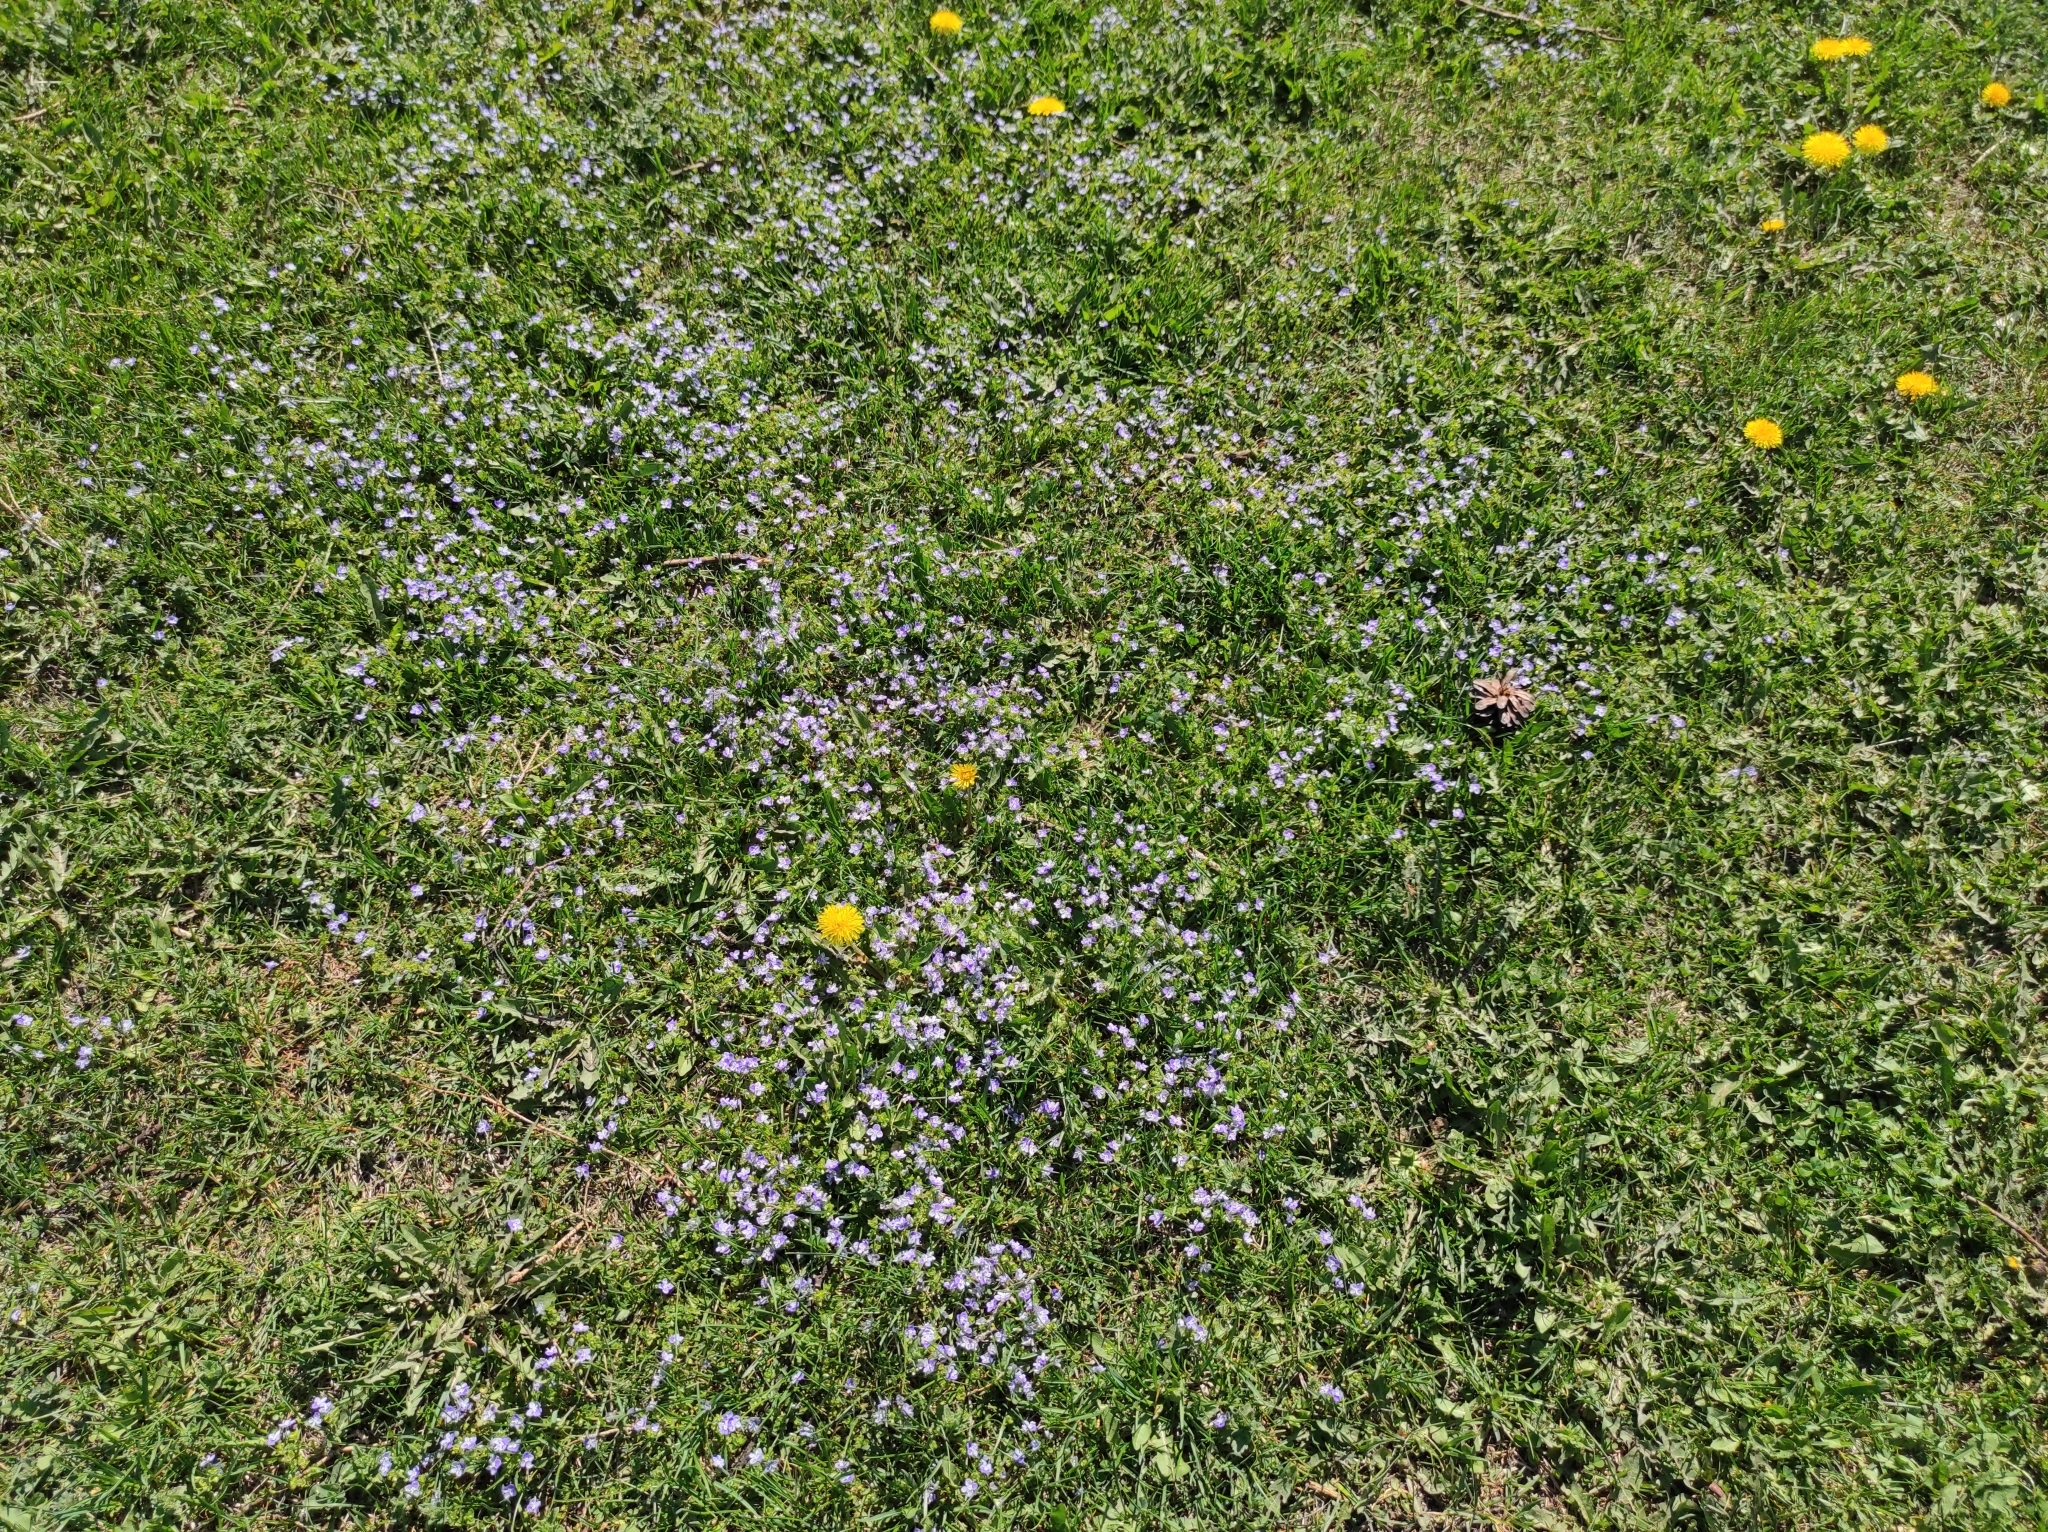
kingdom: Plantae
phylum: Tracheophyta
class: Magnoliopsida
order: Lamiales
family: Plantaginaceae
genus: Veronica
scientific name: Veronica filiformis
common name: Slender speedwell
